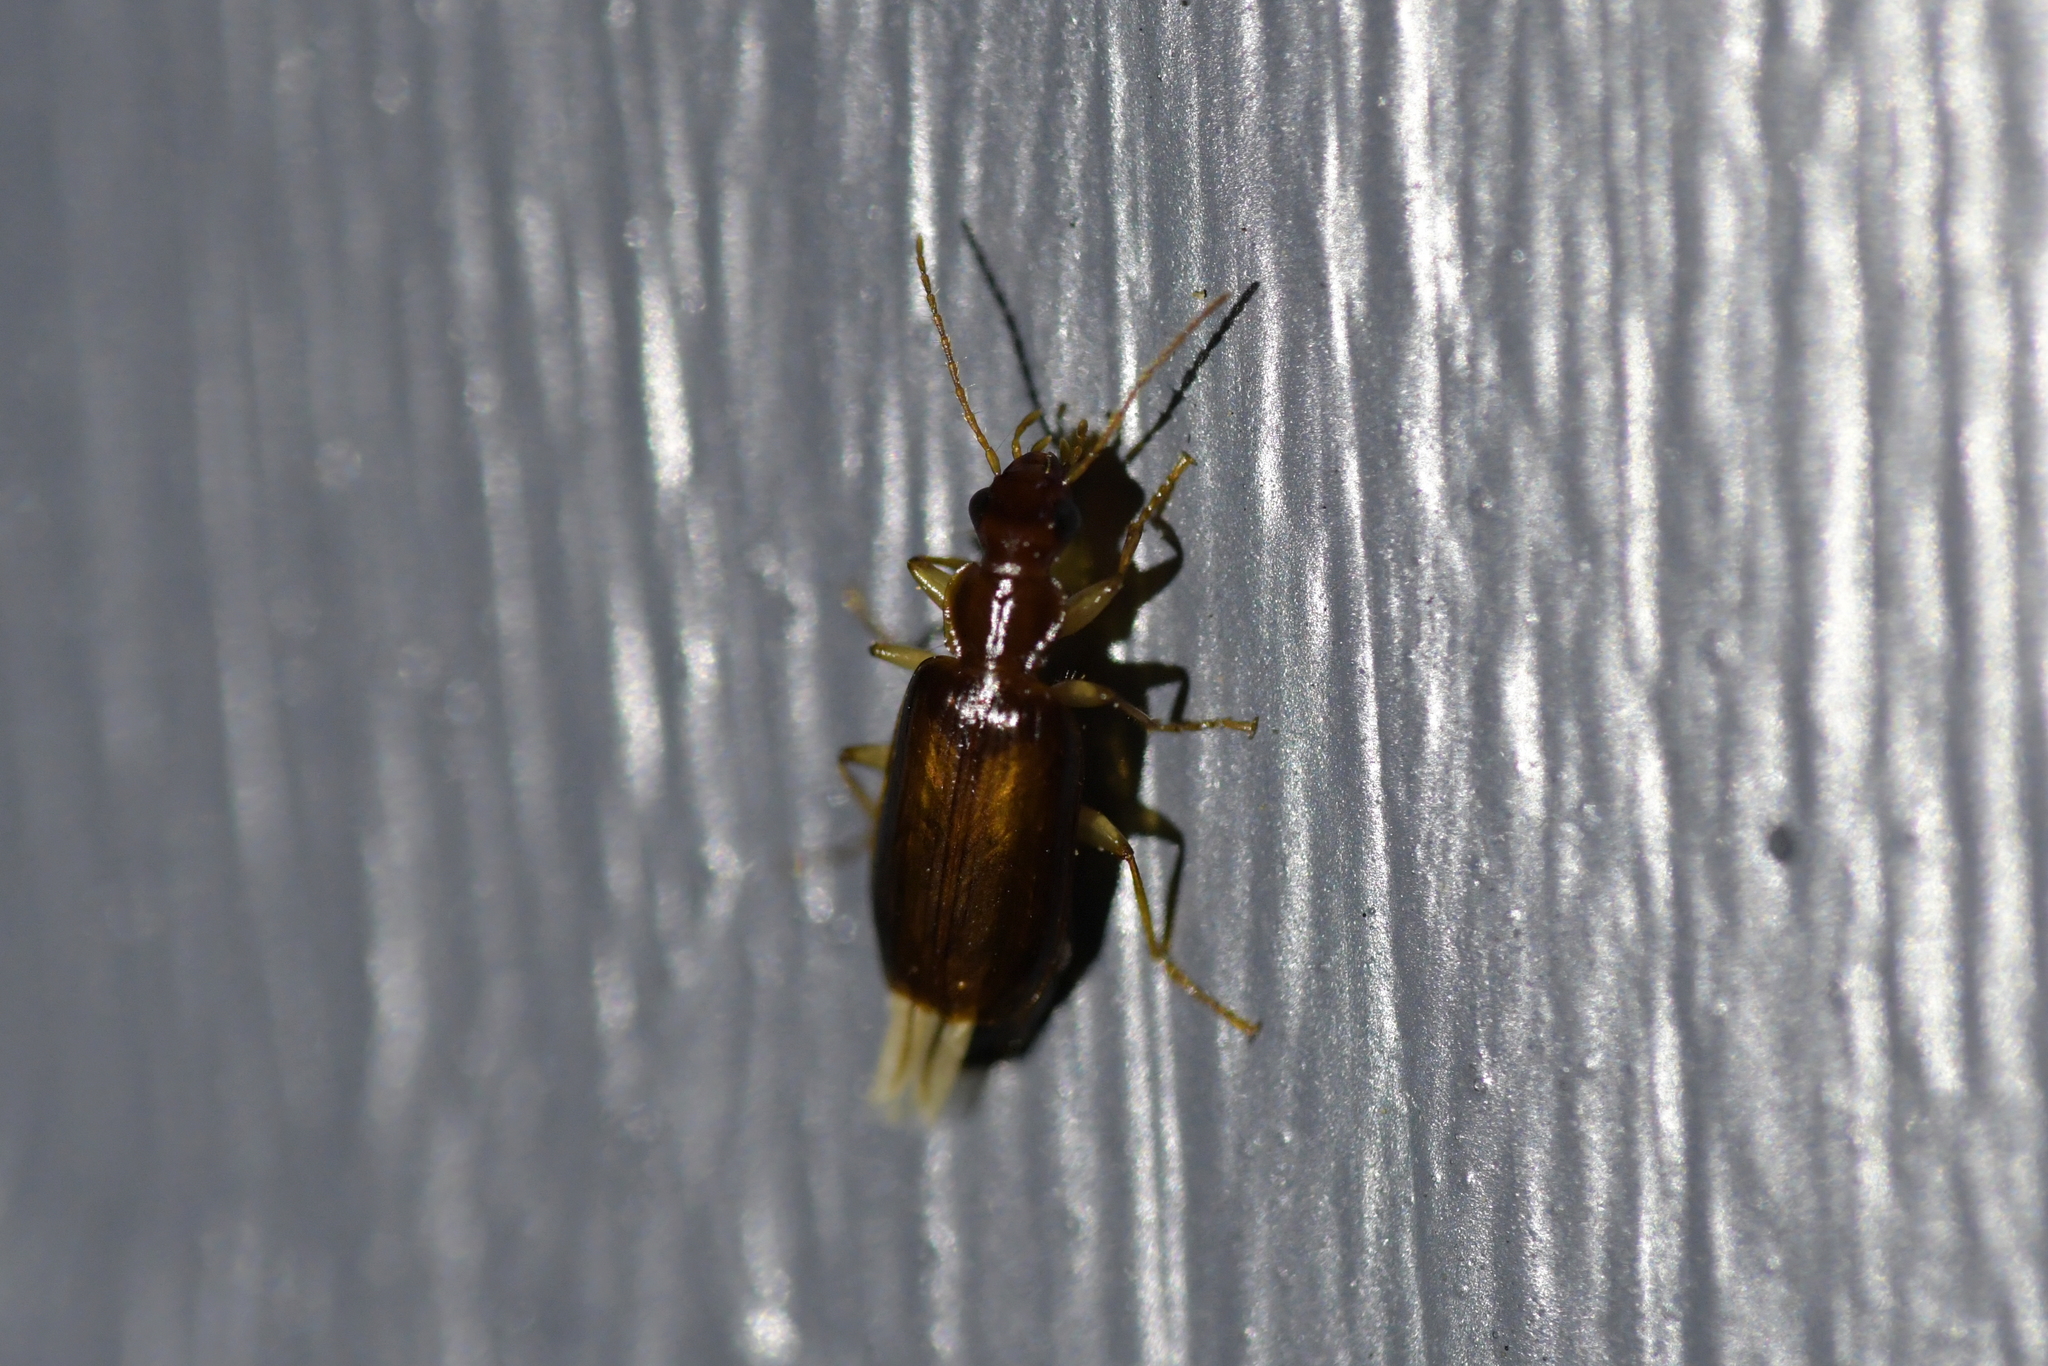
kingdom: Animalia
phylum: Arthropoda
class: Insecta
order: Coleoptera
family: Carabidae
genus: Dromius
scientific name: Dromius meridionalis
